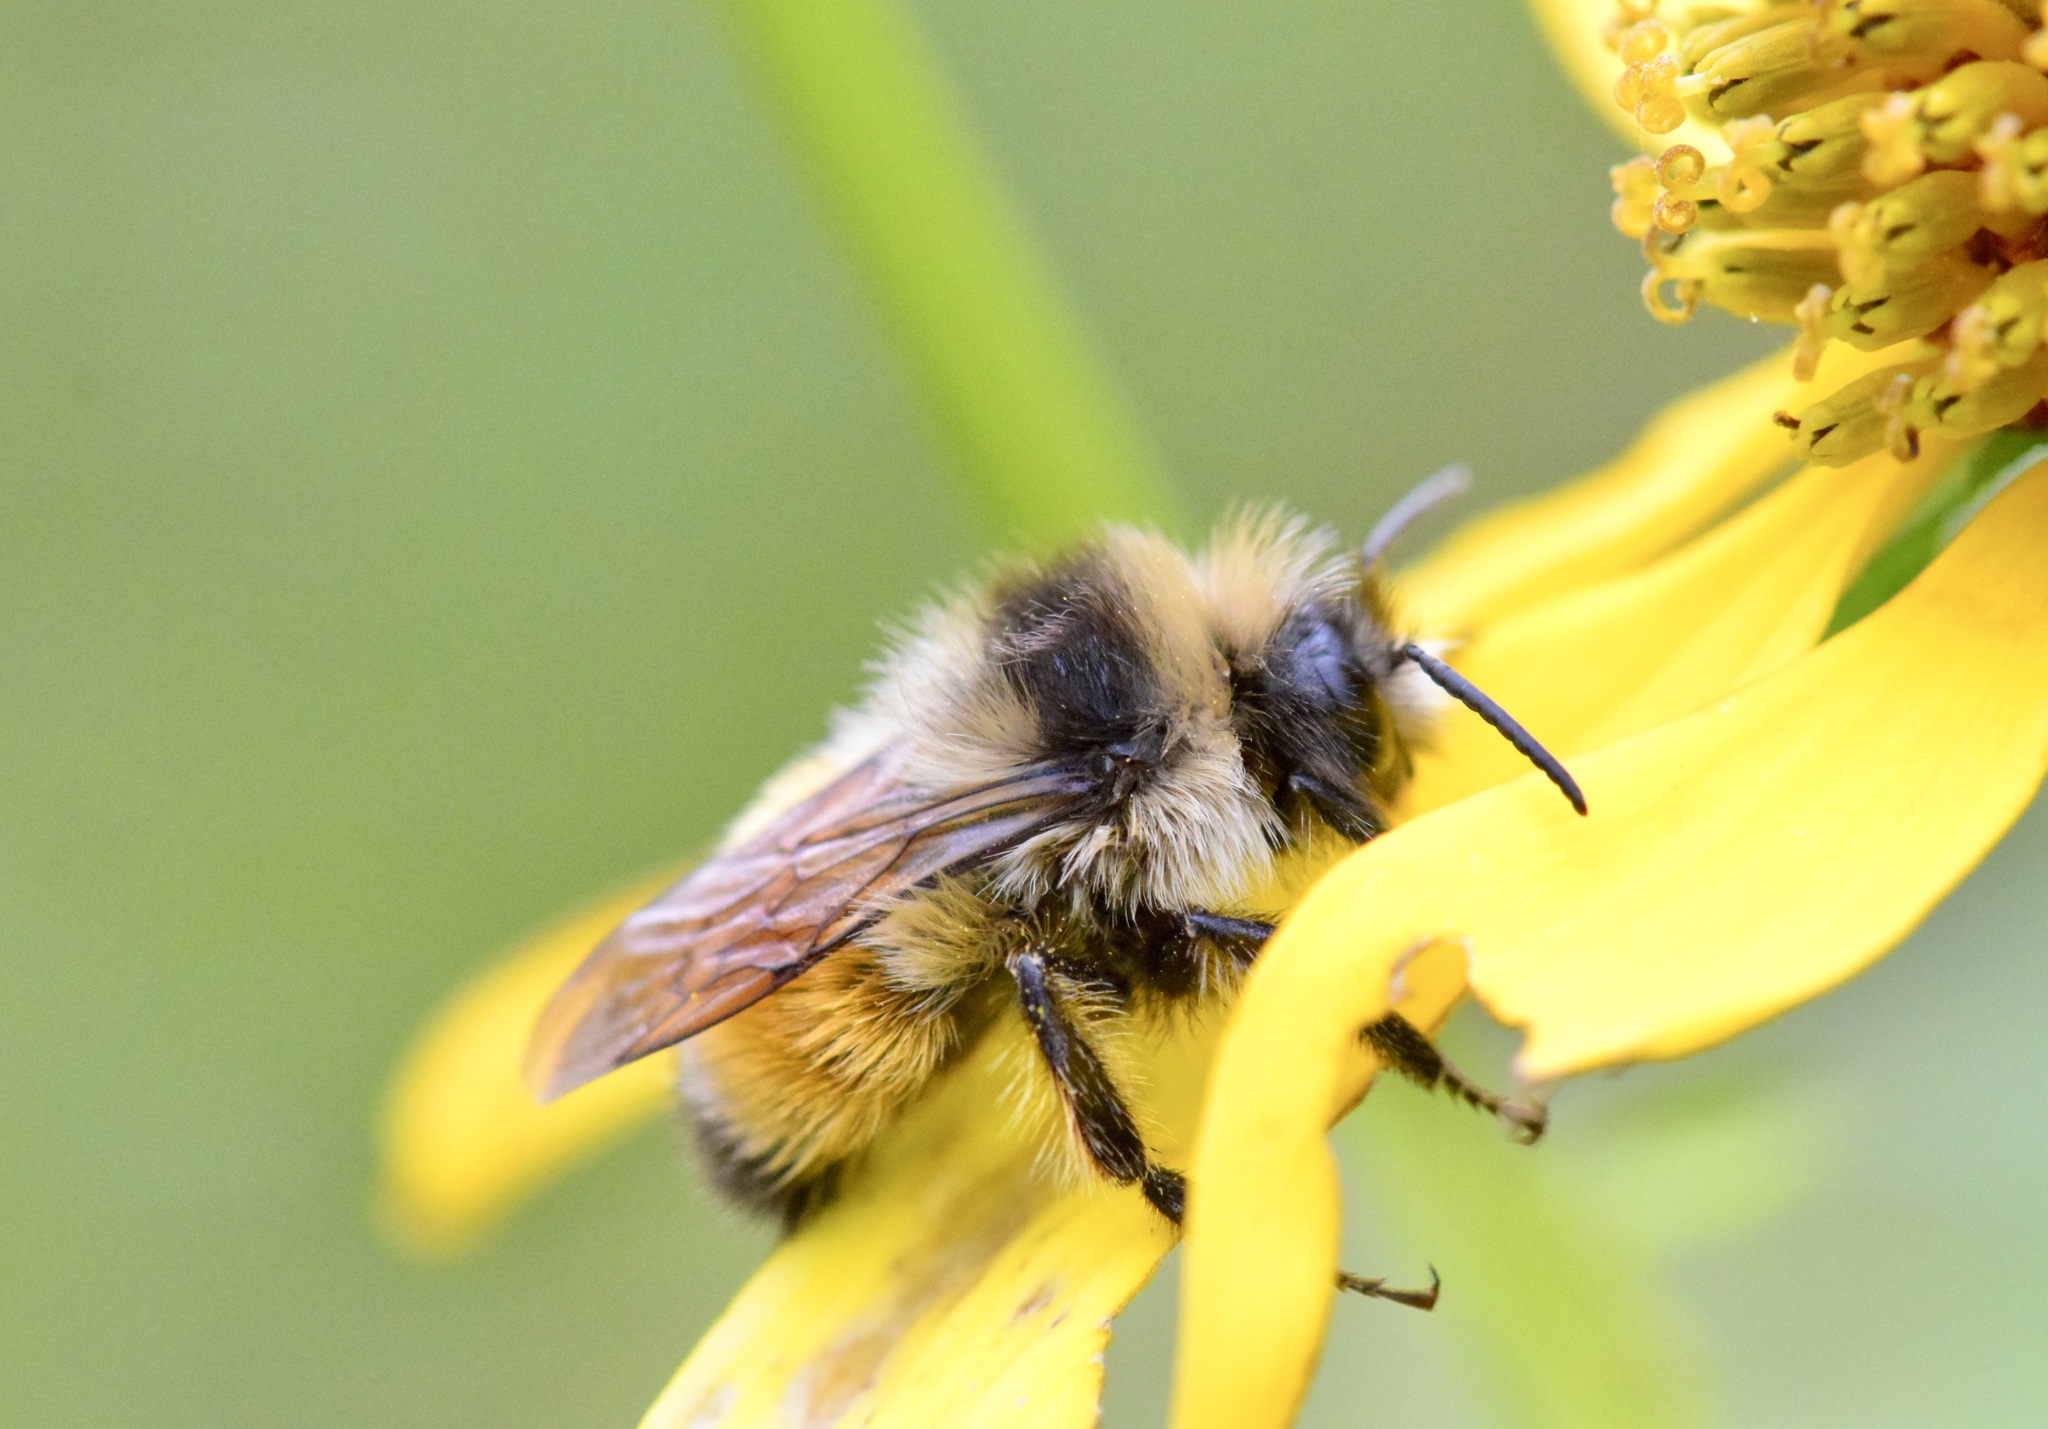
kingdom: Animalia
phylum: Arthropoda
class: Insecta
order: Hymenoptera
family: Apidae
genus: Bombus
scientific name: Bombus ternarius
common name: Tri-colored bumble bee
